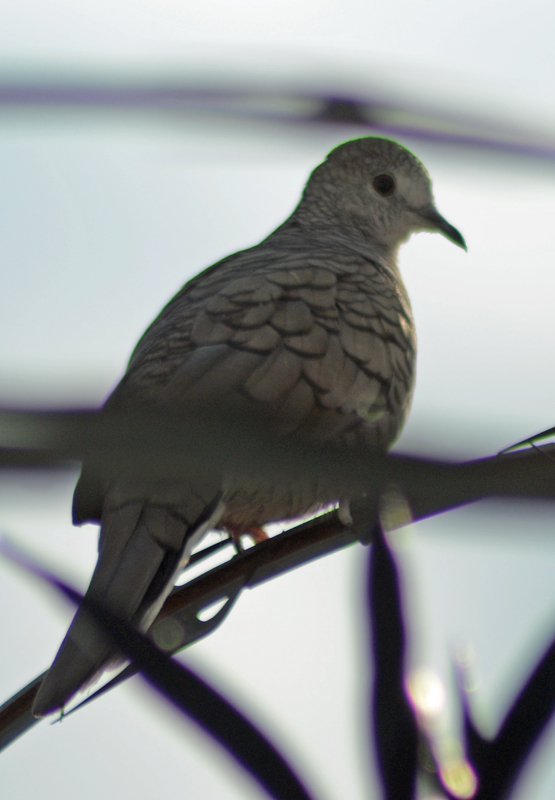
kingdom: Animalia
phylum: Chordata
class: Aves
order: Columbiformes
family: Columbidae
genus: Columbina
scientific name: Columbina inca
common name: Inca dove
